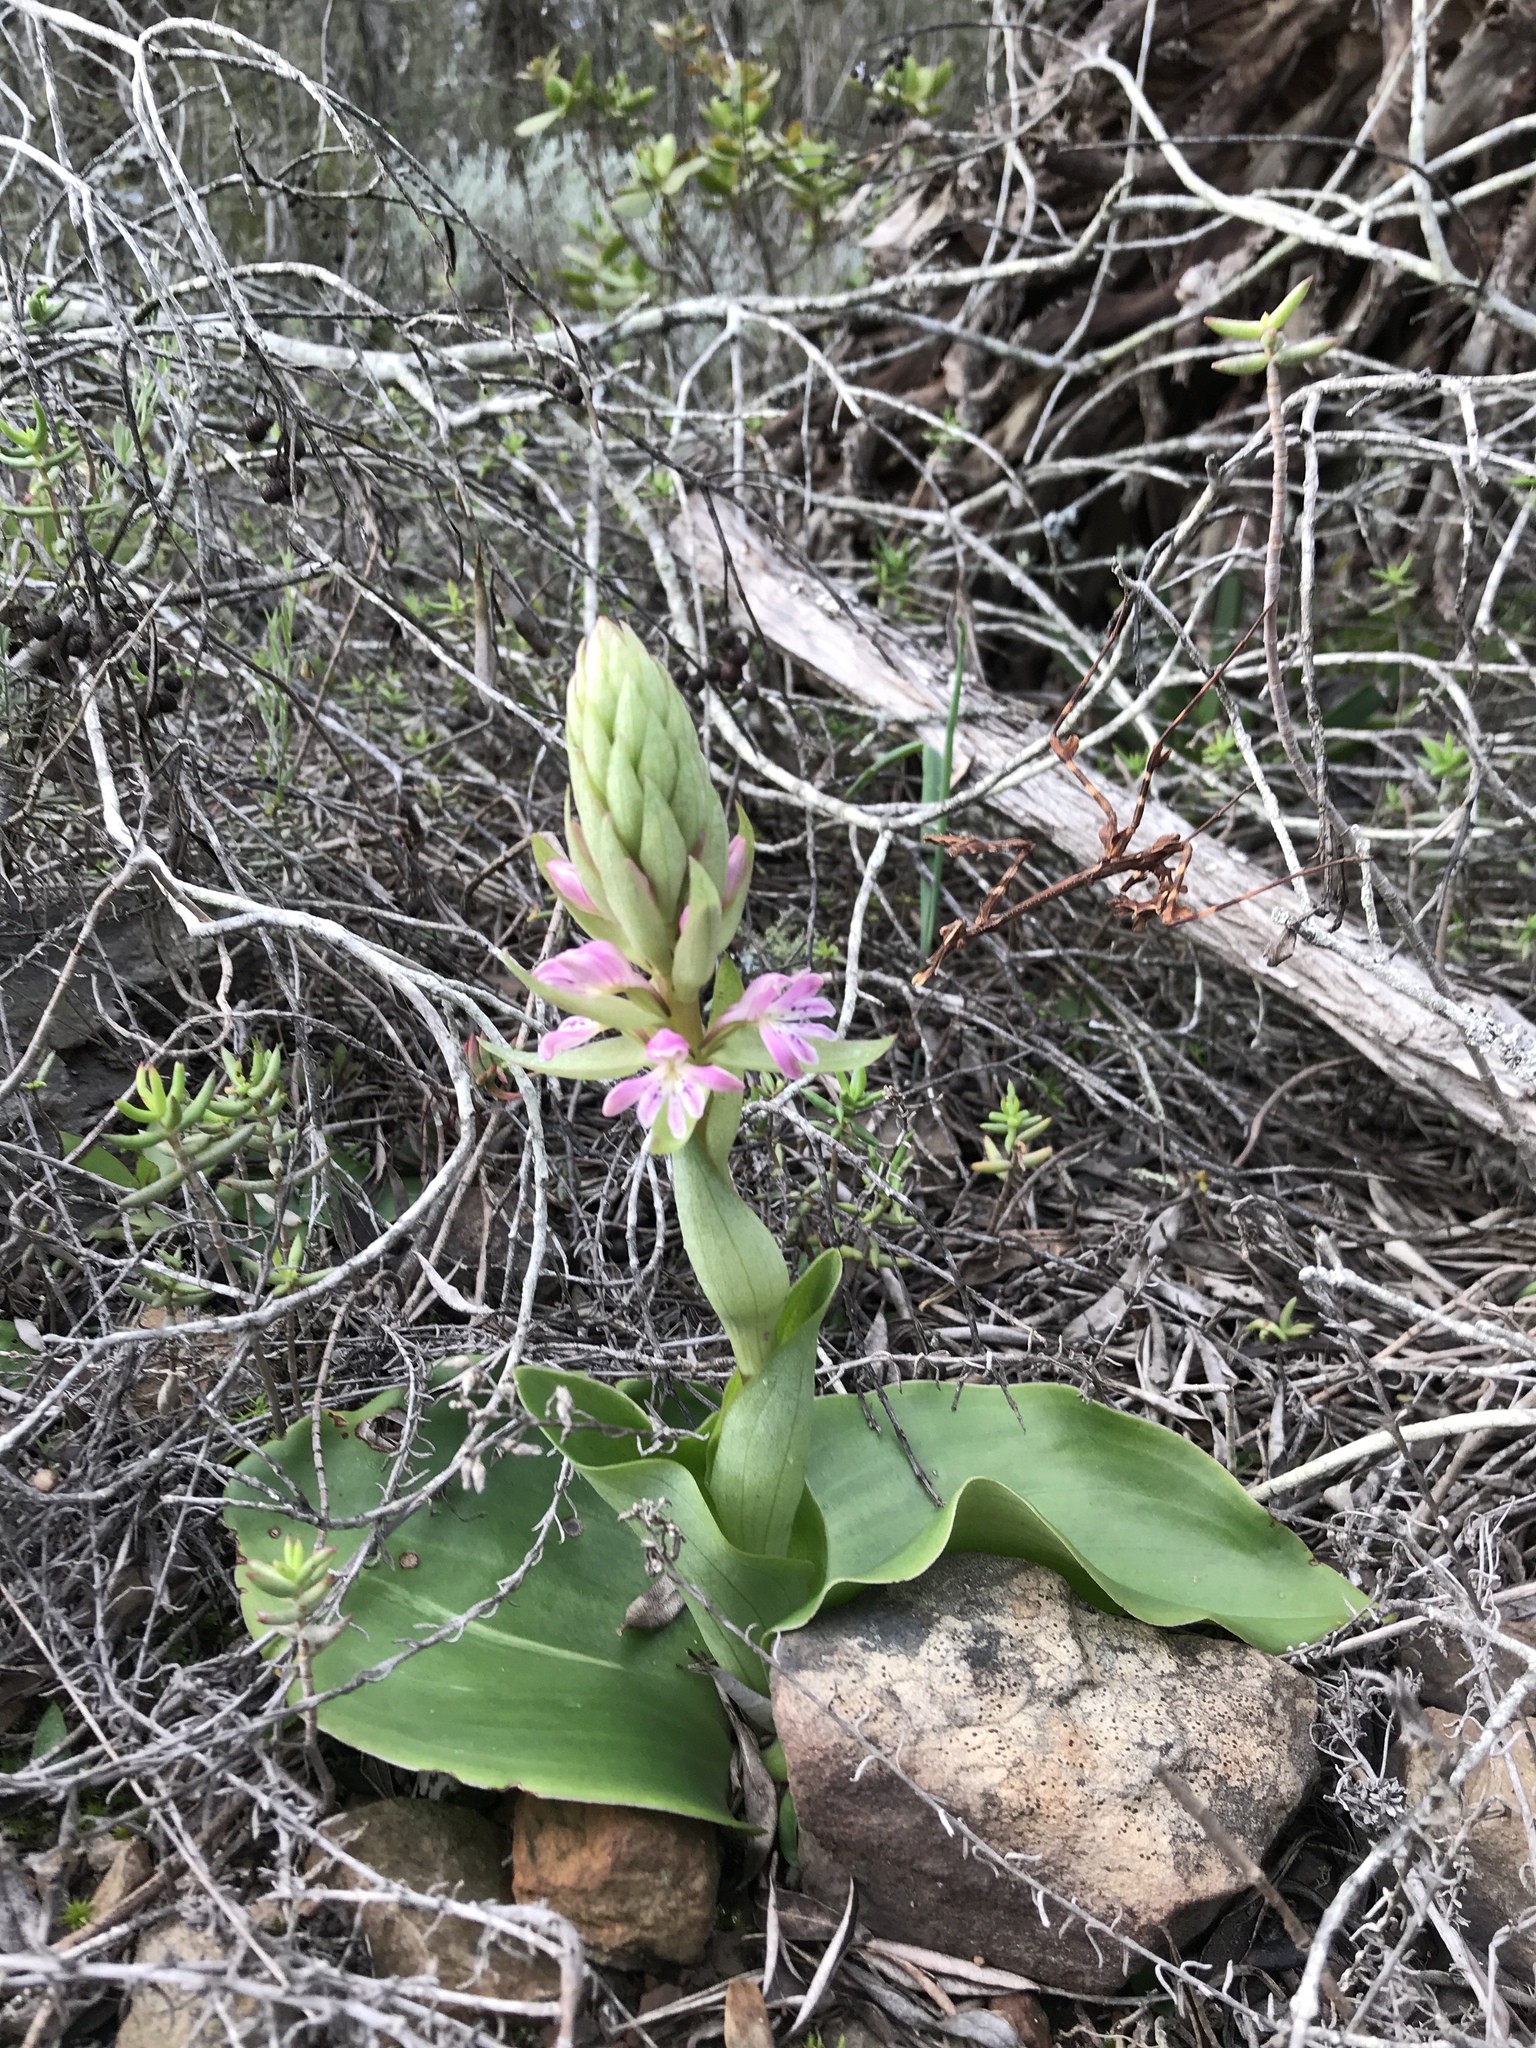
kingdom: Plantae
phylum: Tracheophyta
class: Liliopsida
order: Asparagales
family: Orchidaceae
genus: Satyrium
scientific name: Satyrium erectum
